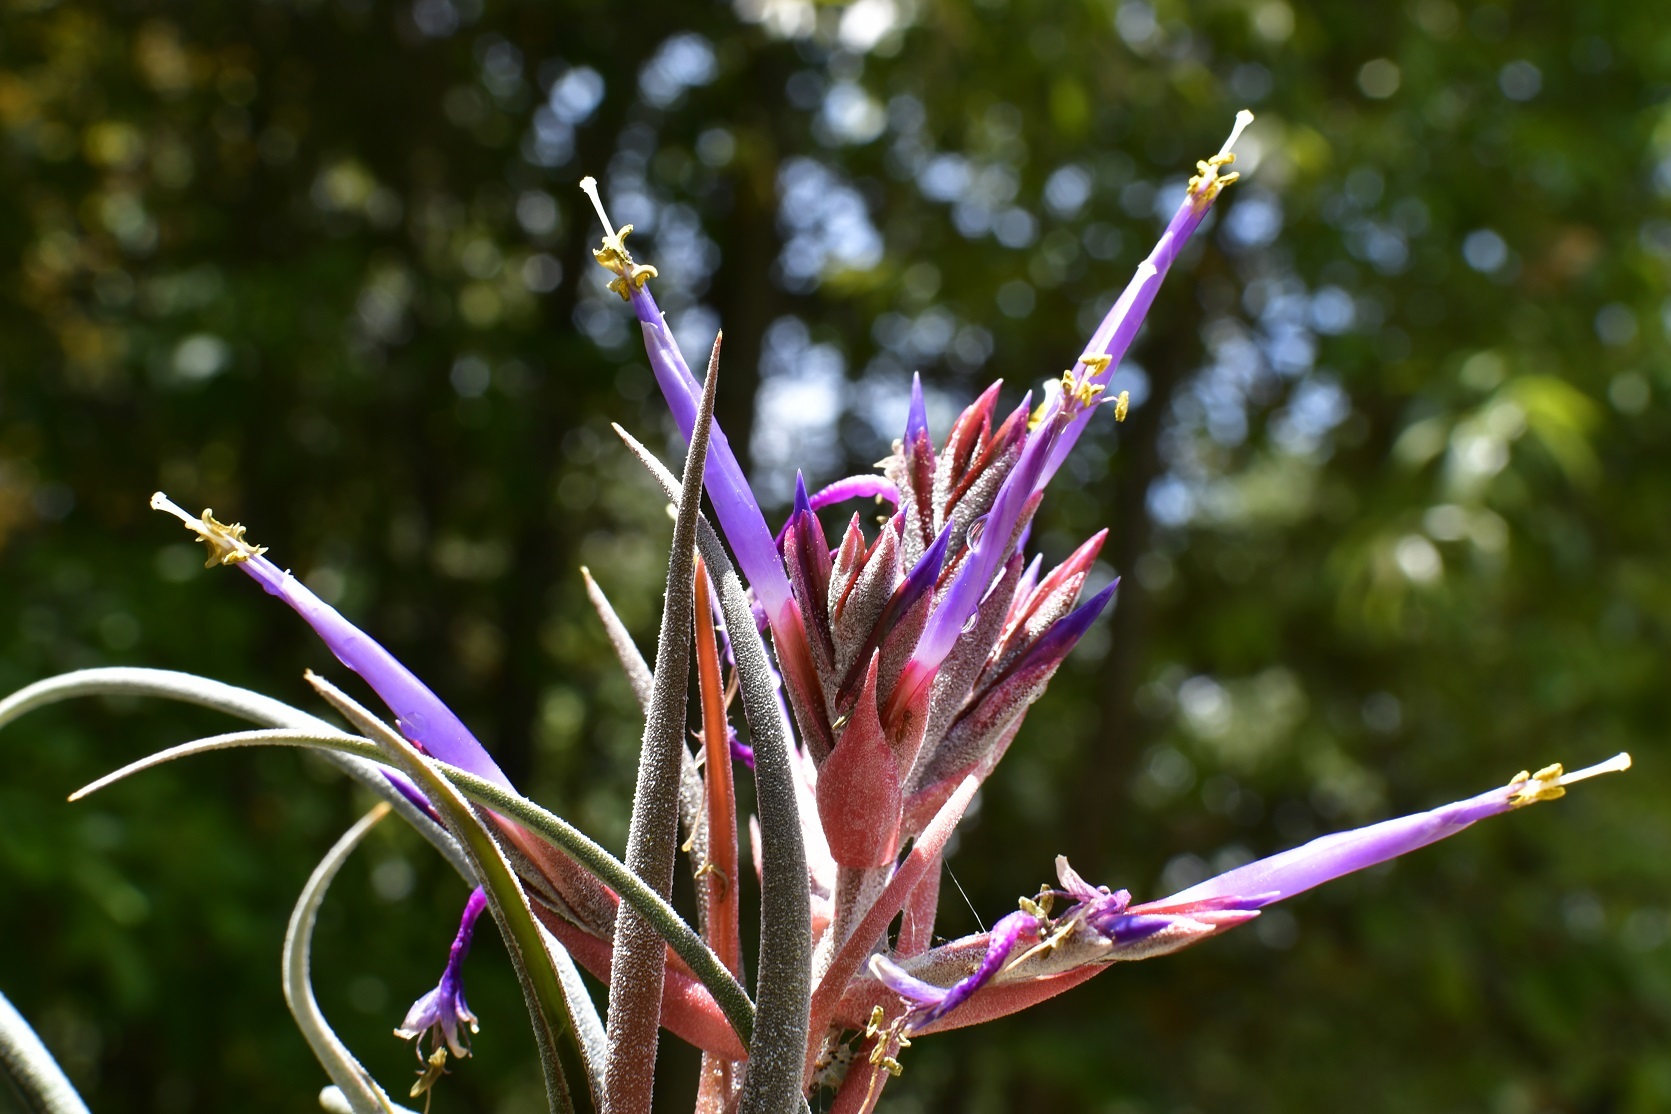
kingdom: Plantae
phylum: Tracheophyta
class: Liliopsida
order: Poales
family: Bromeliaceae
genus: Tillandsia
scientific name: Tillandsia seleriana
